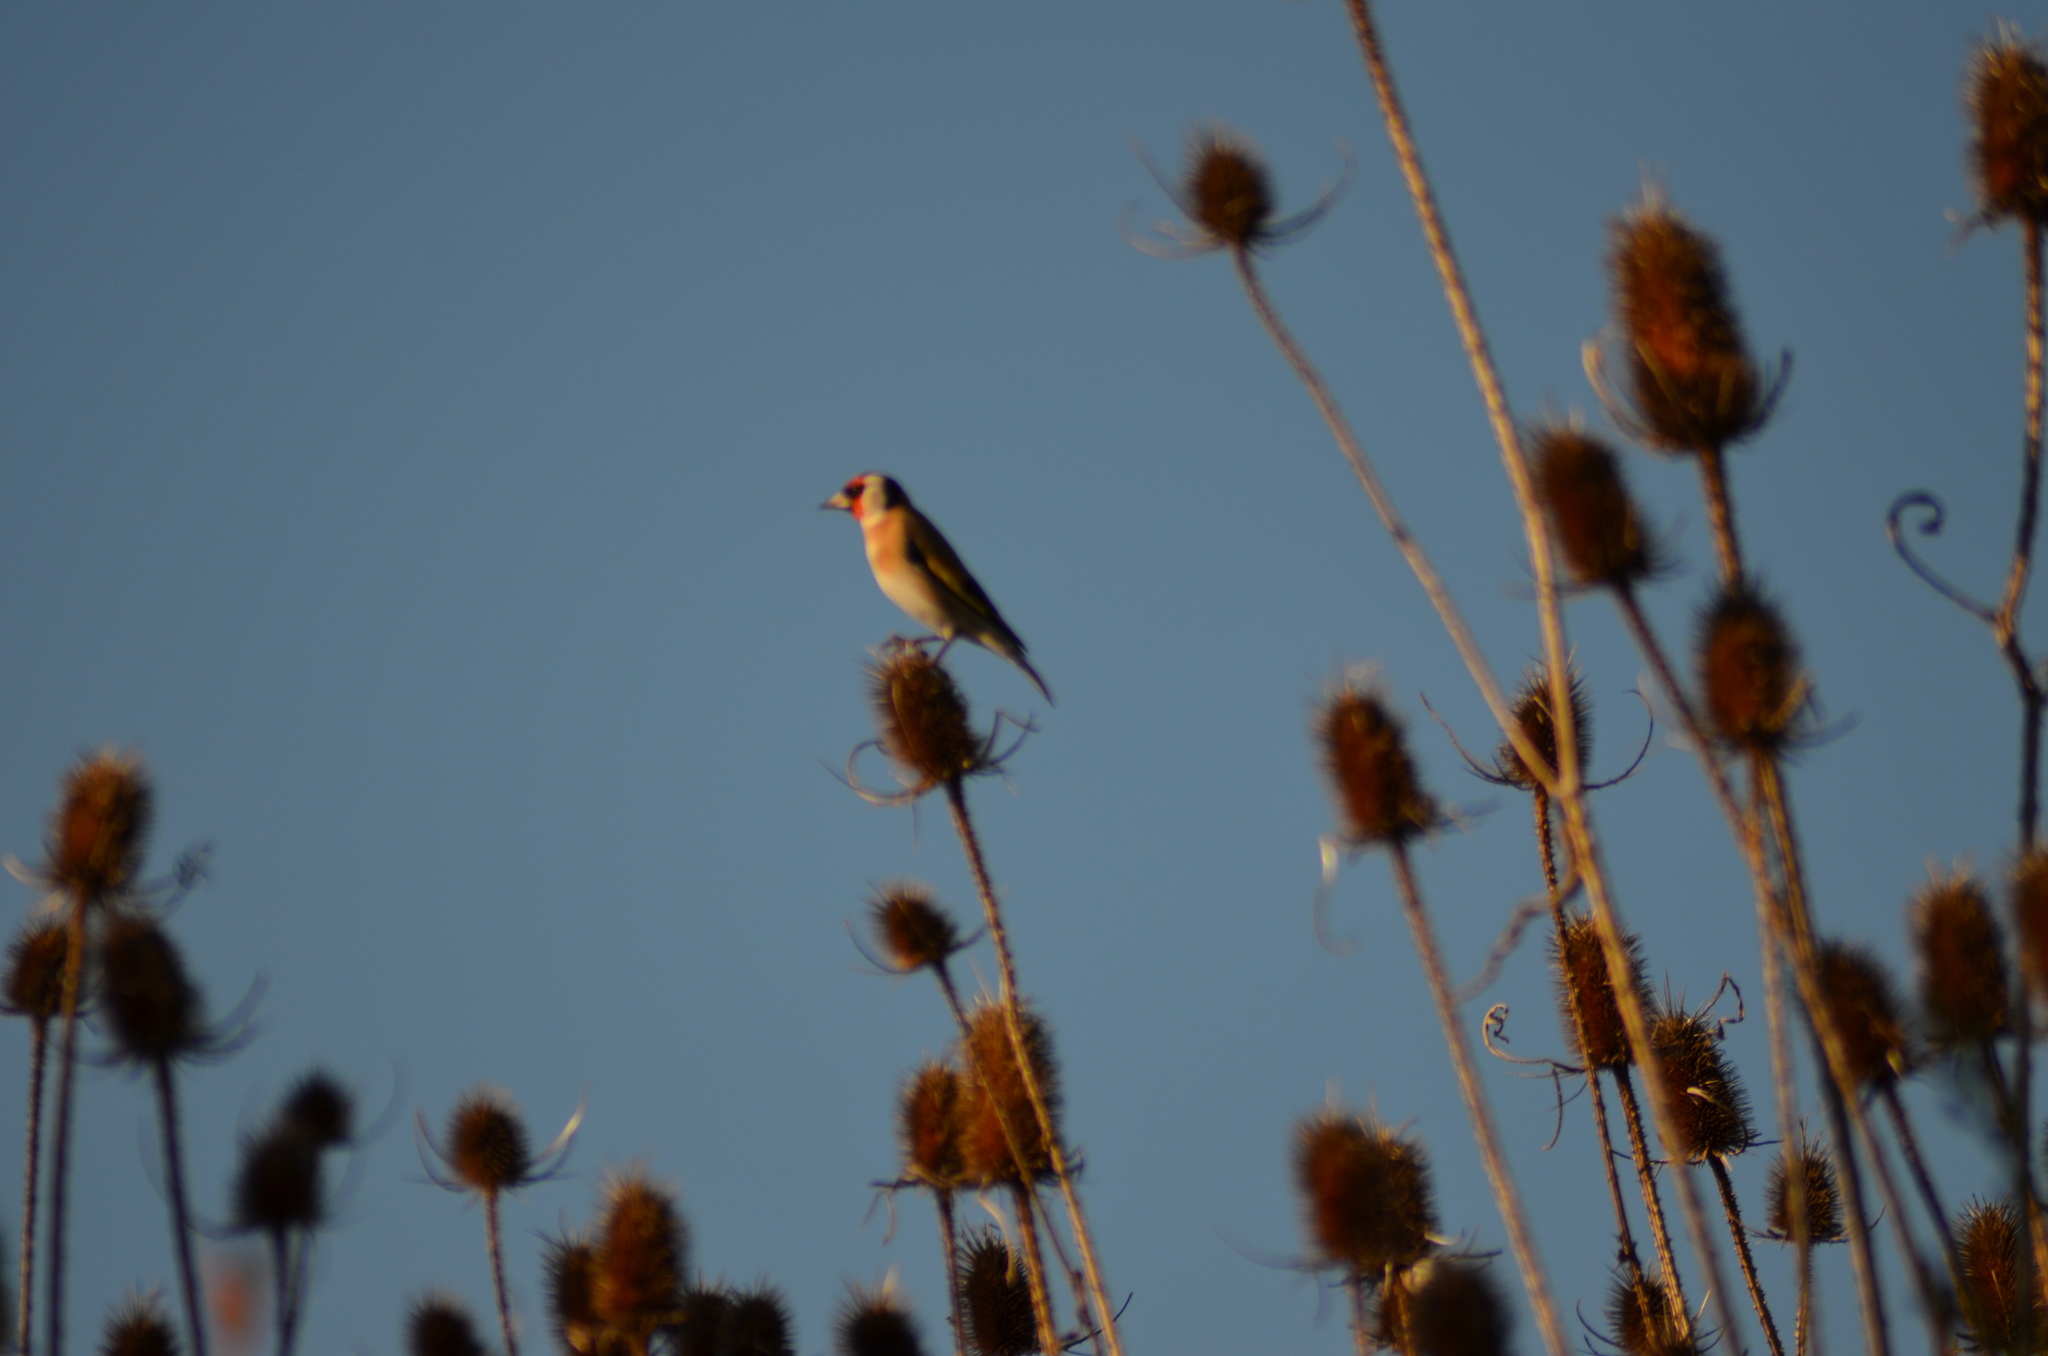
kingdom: Animalia
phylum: Chordata
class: Aves
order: Passeriformes
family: Fringillidae
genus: Carduelis
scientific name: Carduelis carduelis
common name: European goldfinch
